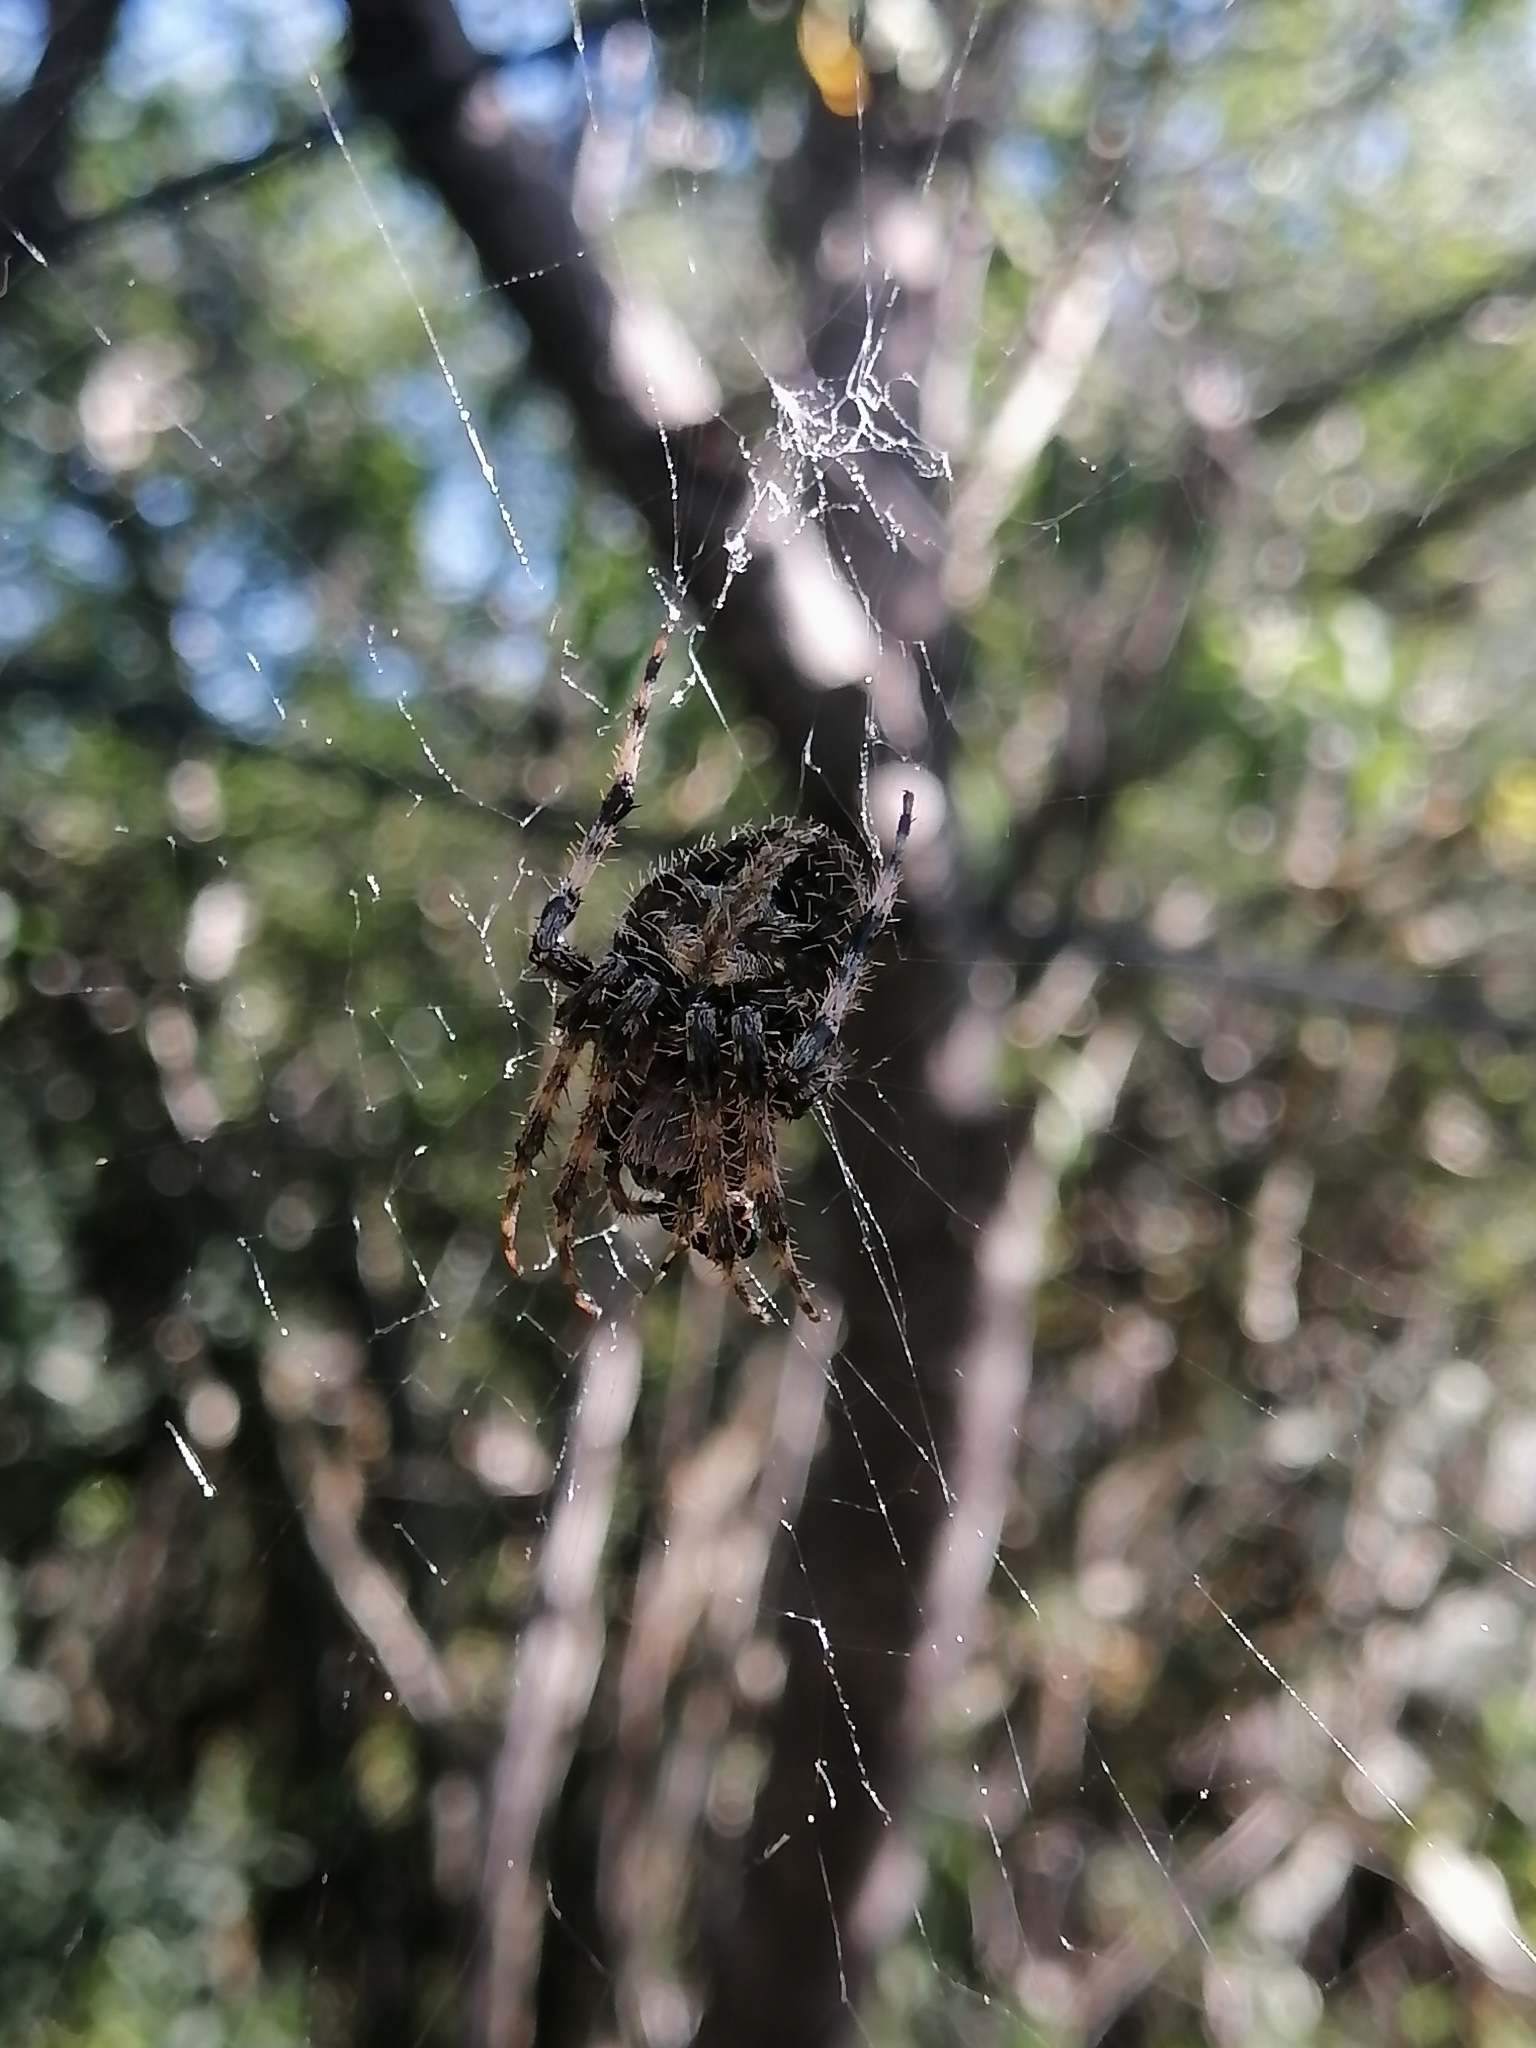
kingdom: Animalia
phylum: Arthropoda
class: Arachnida
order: Araneae
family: Araneidae
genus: Neoscona
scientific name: Neoscona crucifera
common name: Spotted orbweaver
